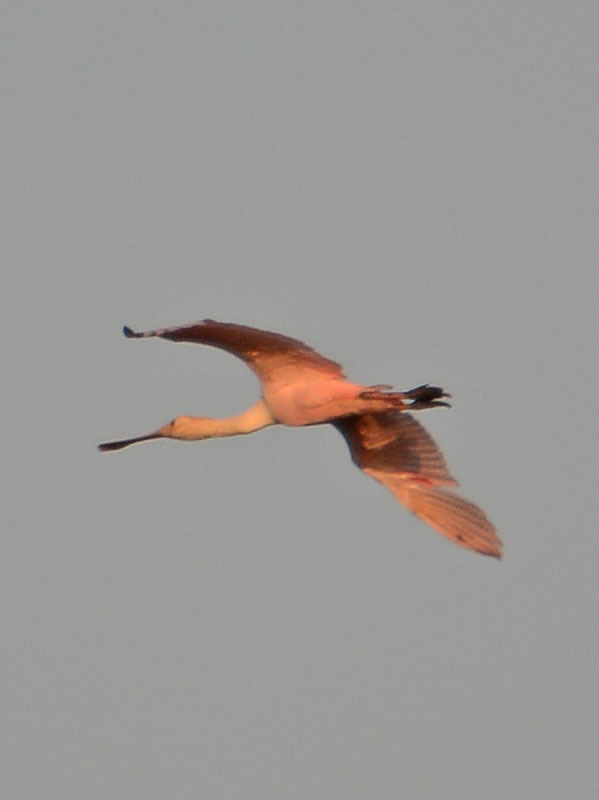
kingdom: Animalia
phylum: Chordata
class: Aves
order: Pelecaniformes
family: Threskiornithidae
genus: Platalea
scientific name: Platalea ajaja
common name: Roseate spoonbill
